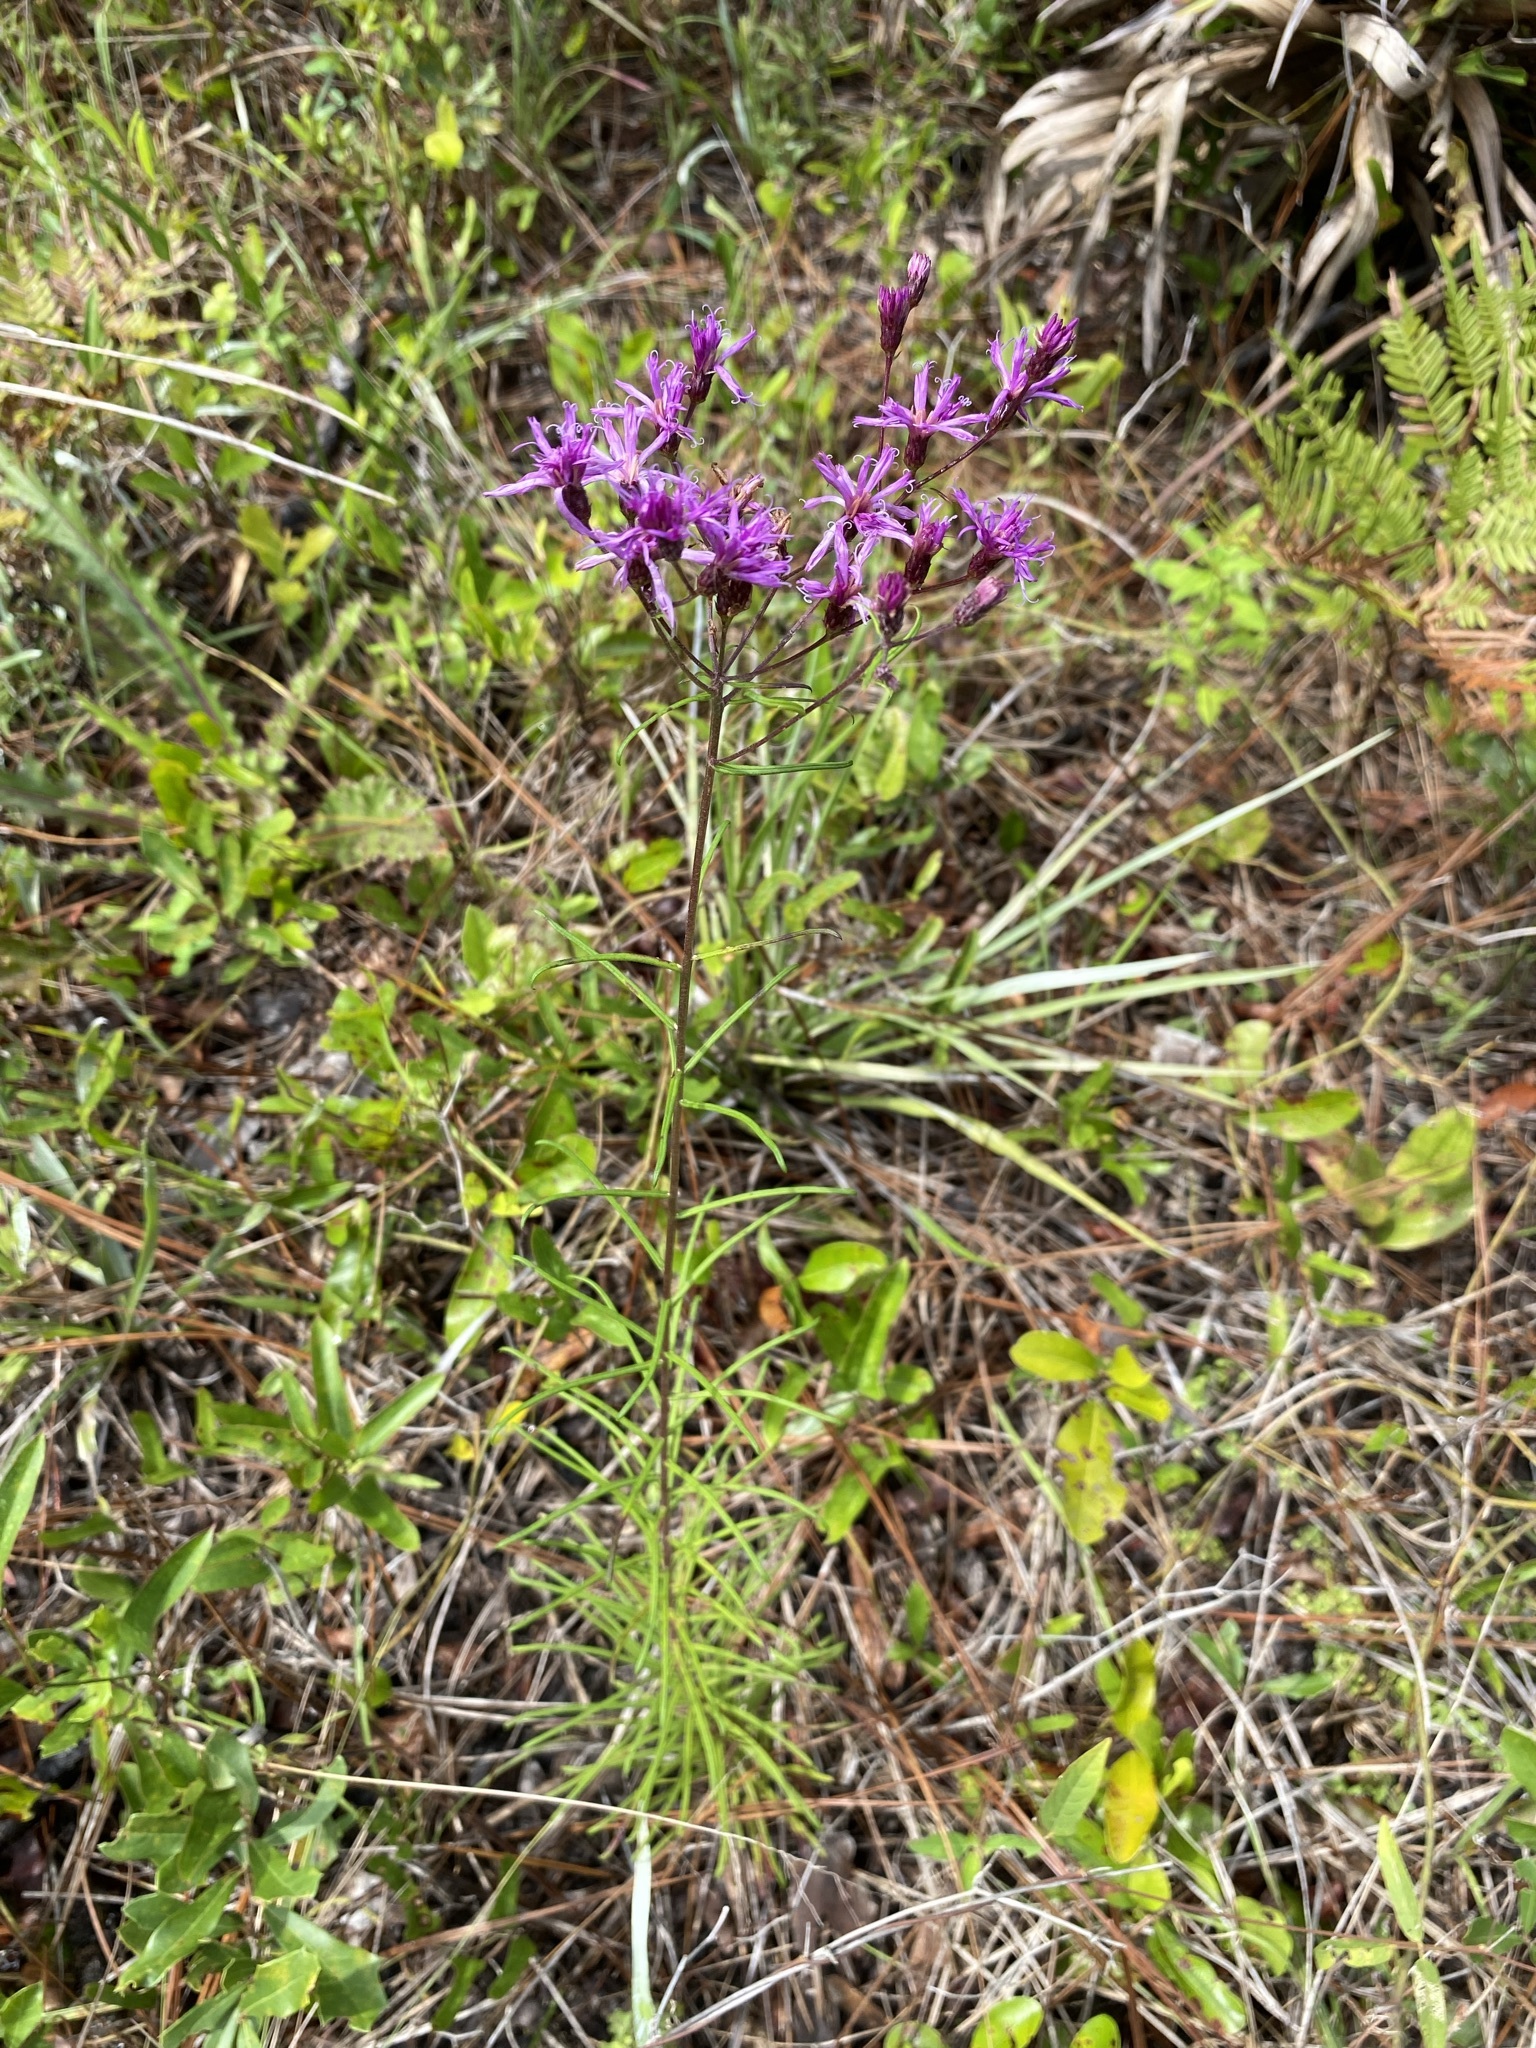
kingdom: Plantae
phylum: Tracheophyta
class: Magnoliopsida
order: Asterales
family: Asteraceae
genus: Vernonia
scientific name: Vernonia angustifolia
